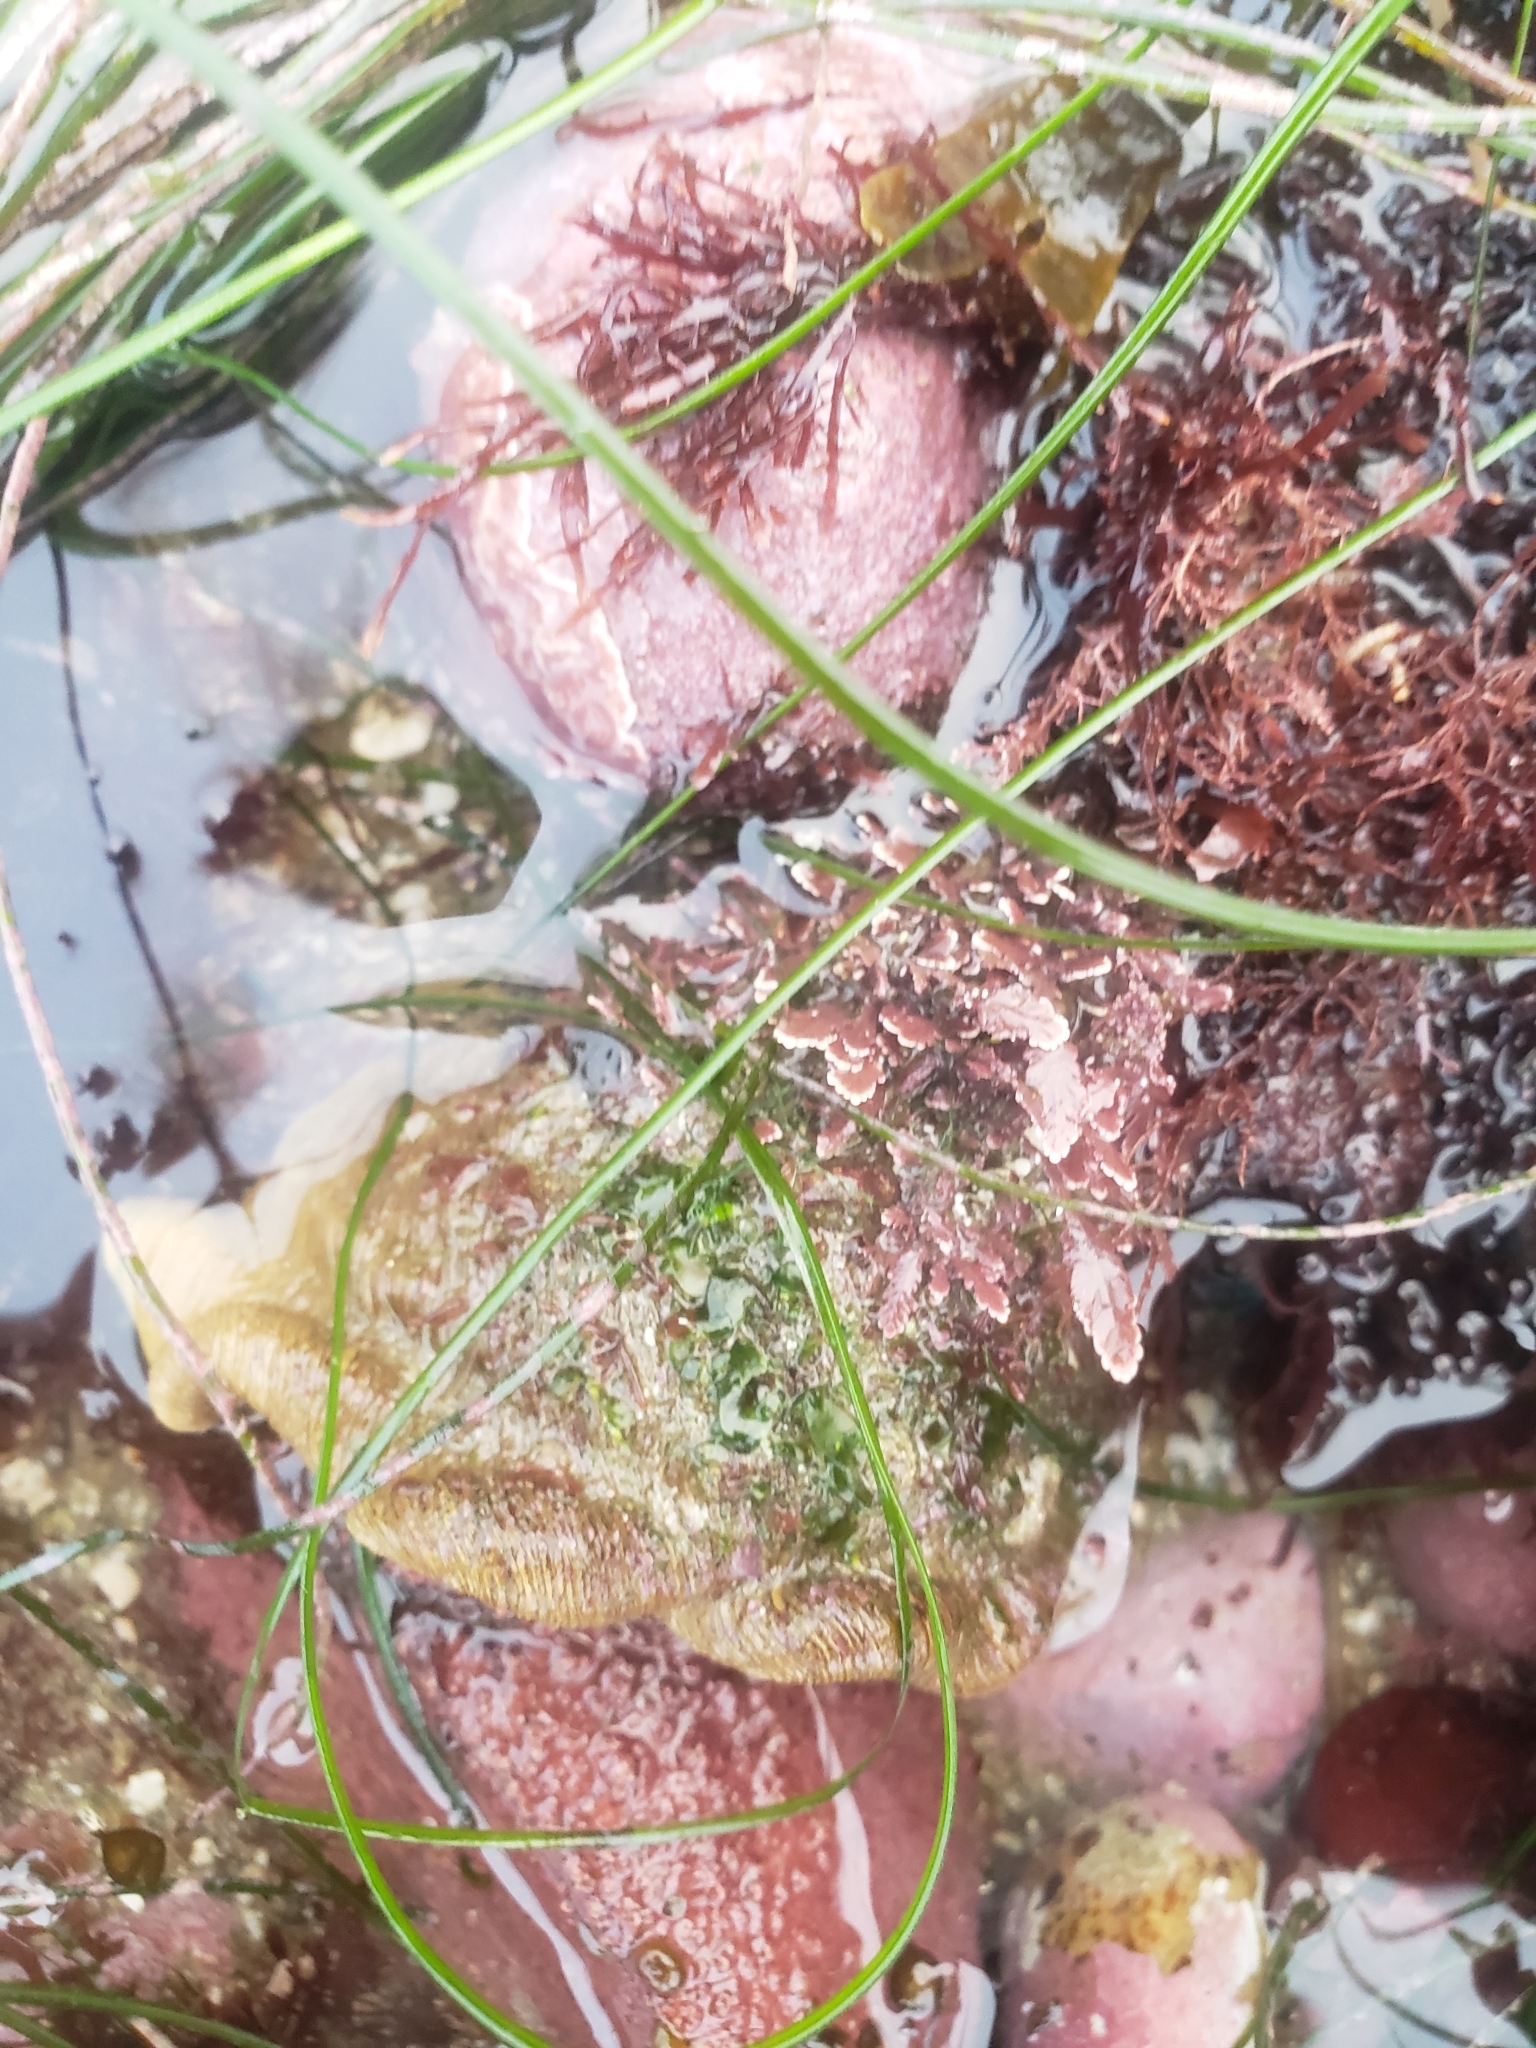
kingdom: Animalia
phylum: Mollusca
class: Gastropoda
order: Trochida
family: Turbinidae
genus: Megastraea
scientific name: Megastraea undosa
